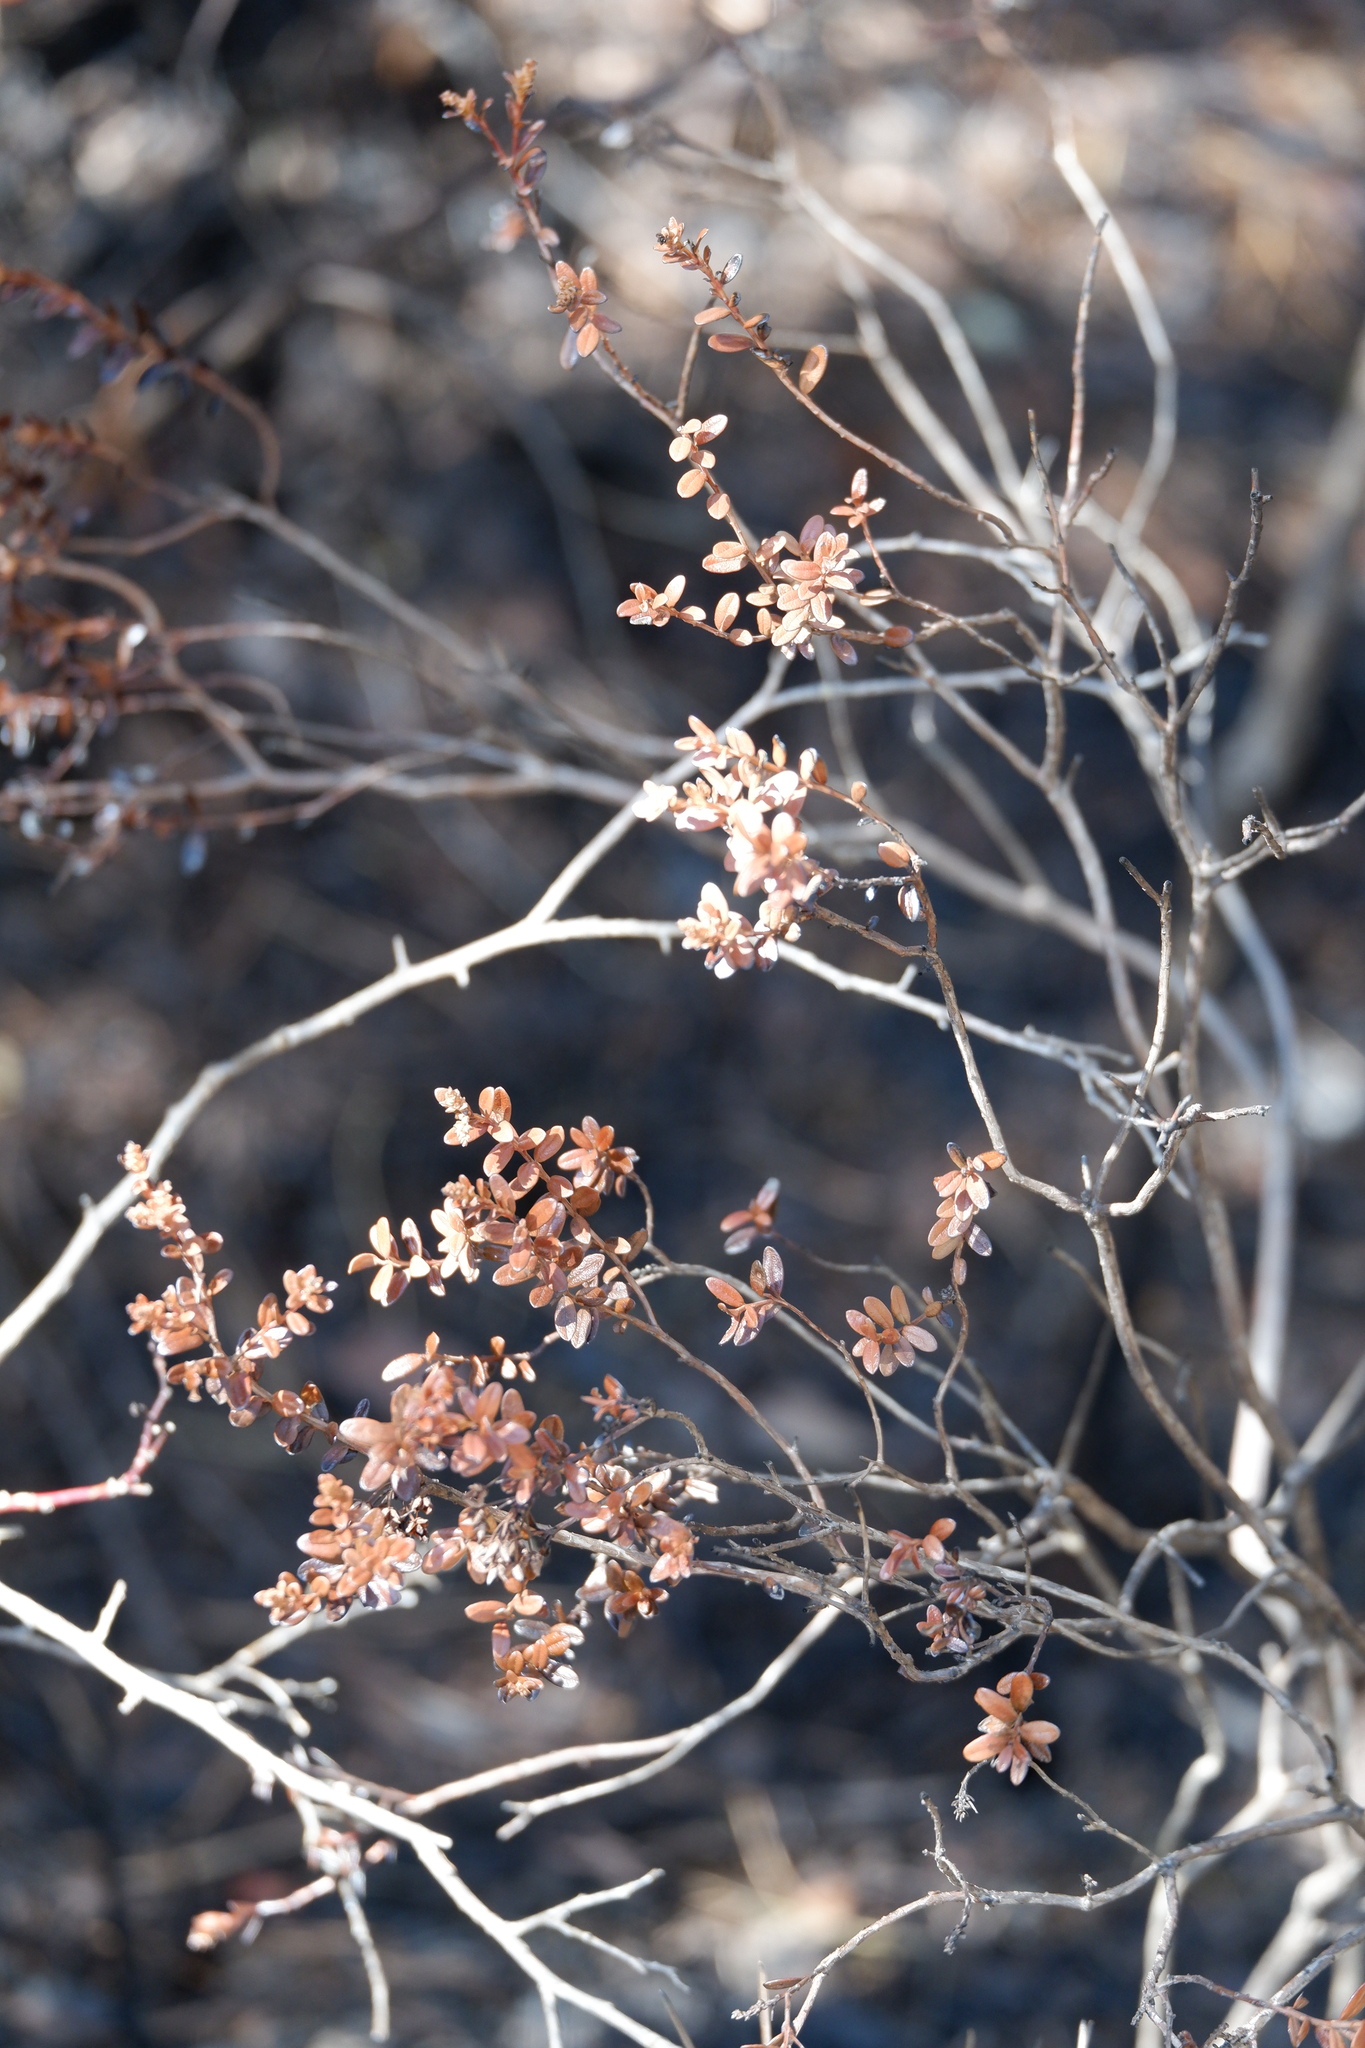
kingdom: Plantae
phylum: Tracheophyta
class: Magnoliopsida
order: Ericales
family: Ericaceae
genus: Kalmia
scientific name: Kalmia buxifolia
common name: Sandmyrtle
